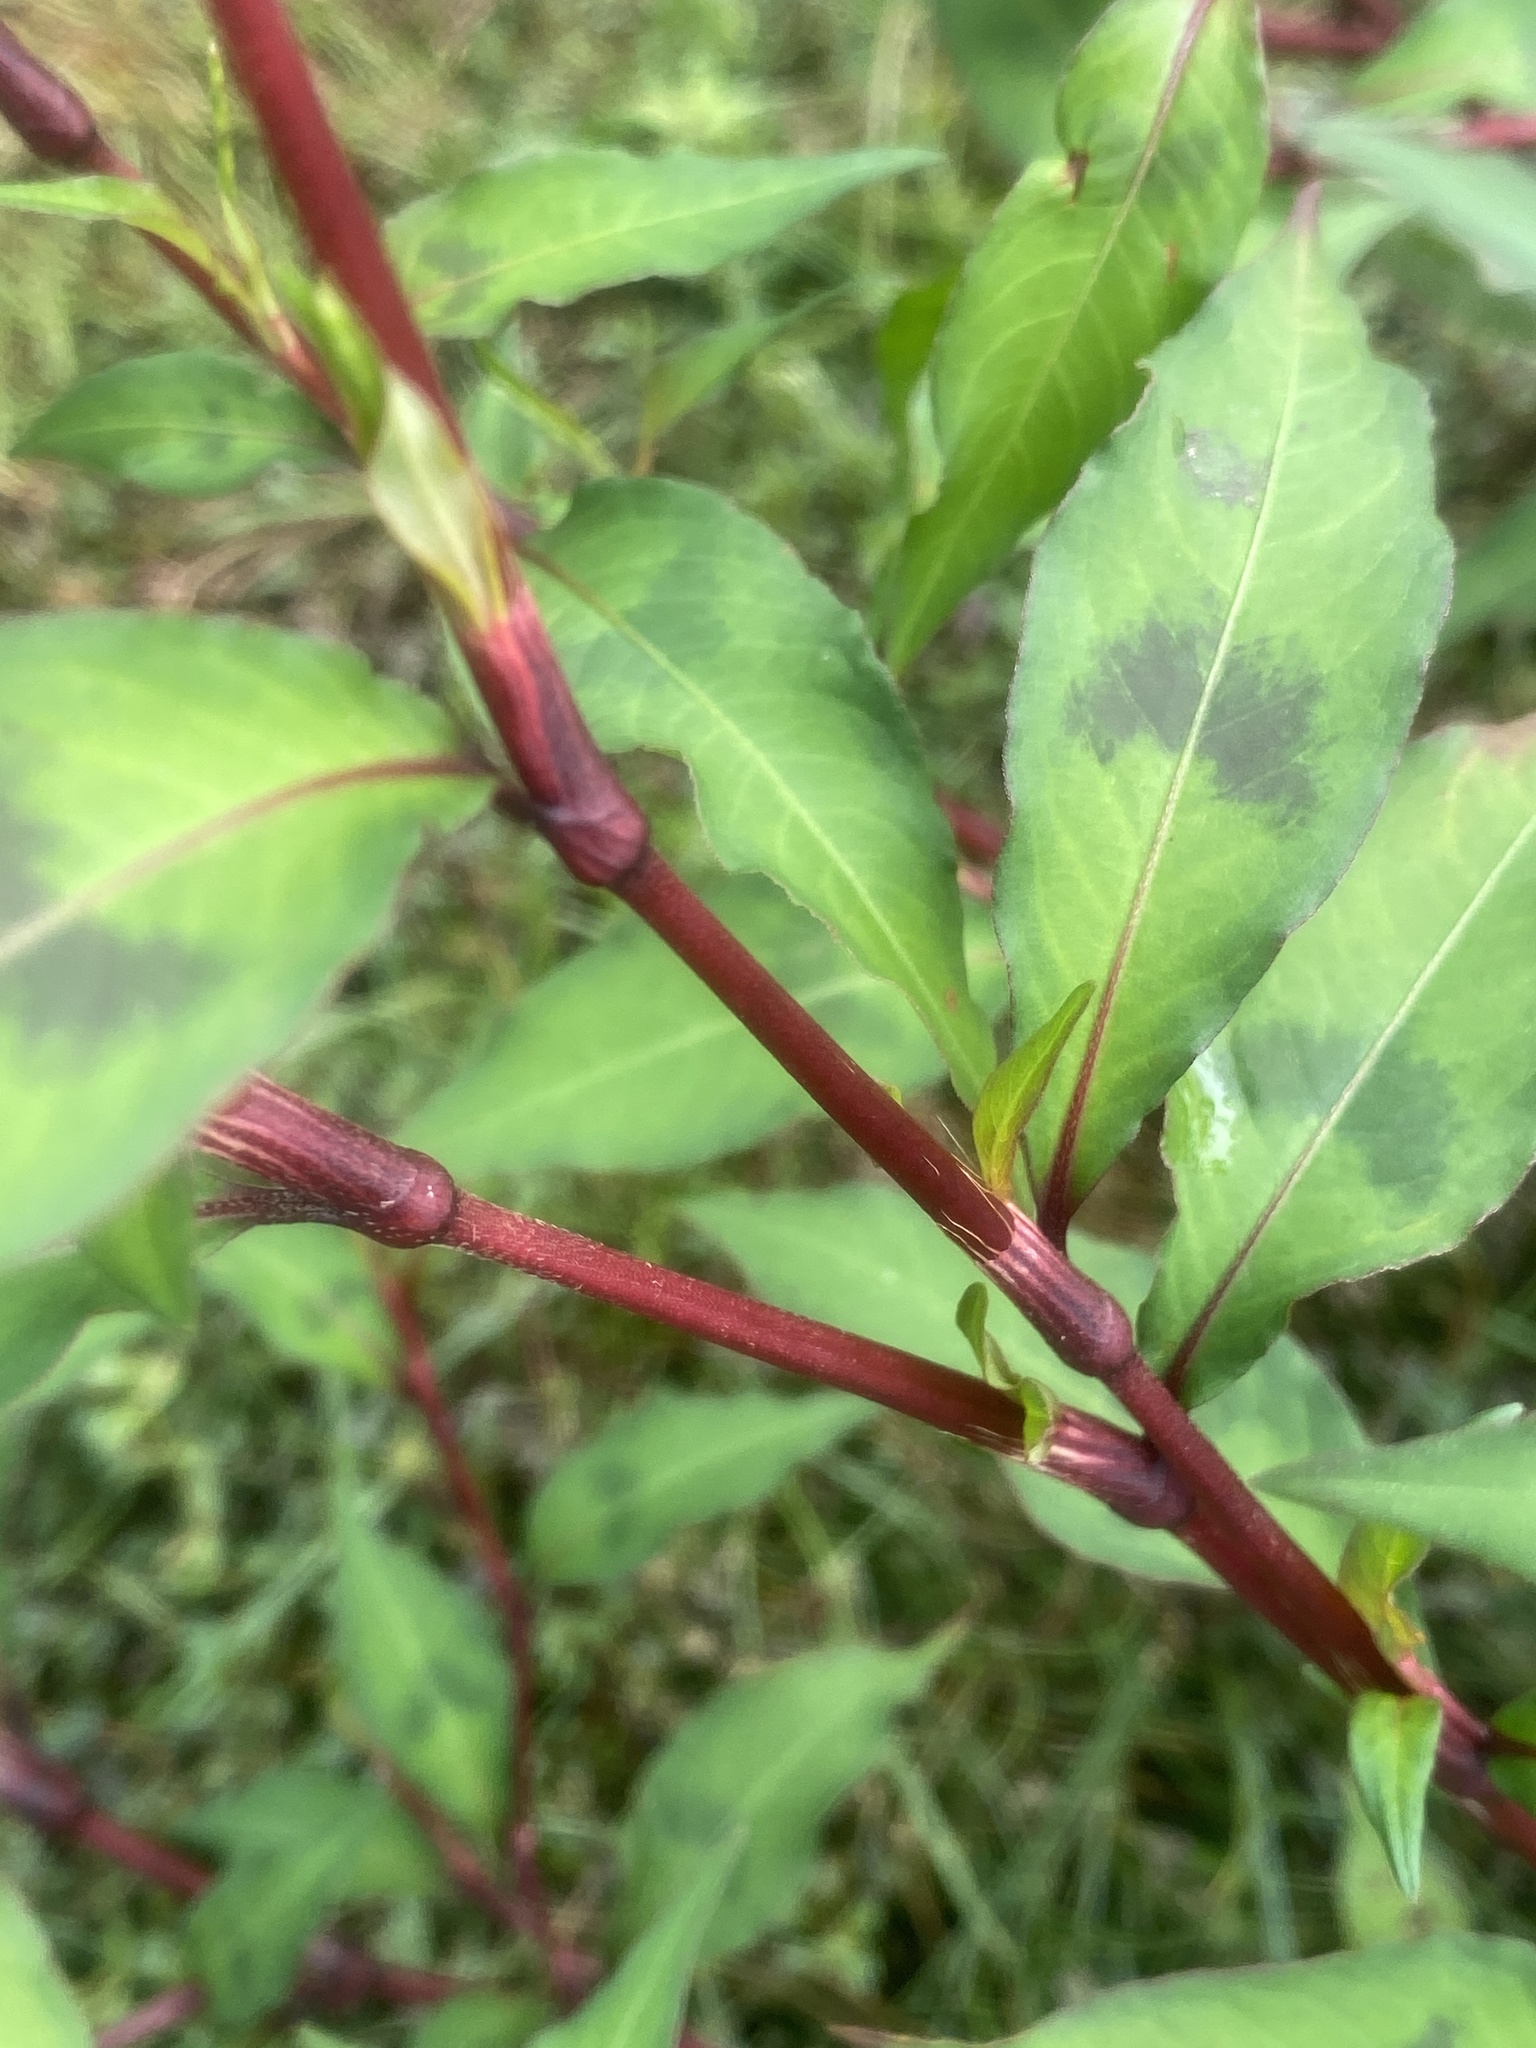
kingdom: Plantae
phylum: Tracheophyta
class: Magnoliopsida
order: Caryophyllales
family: Polygonaceae
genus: Persicaria
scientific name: Persicaria maculosa
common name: Redshank
